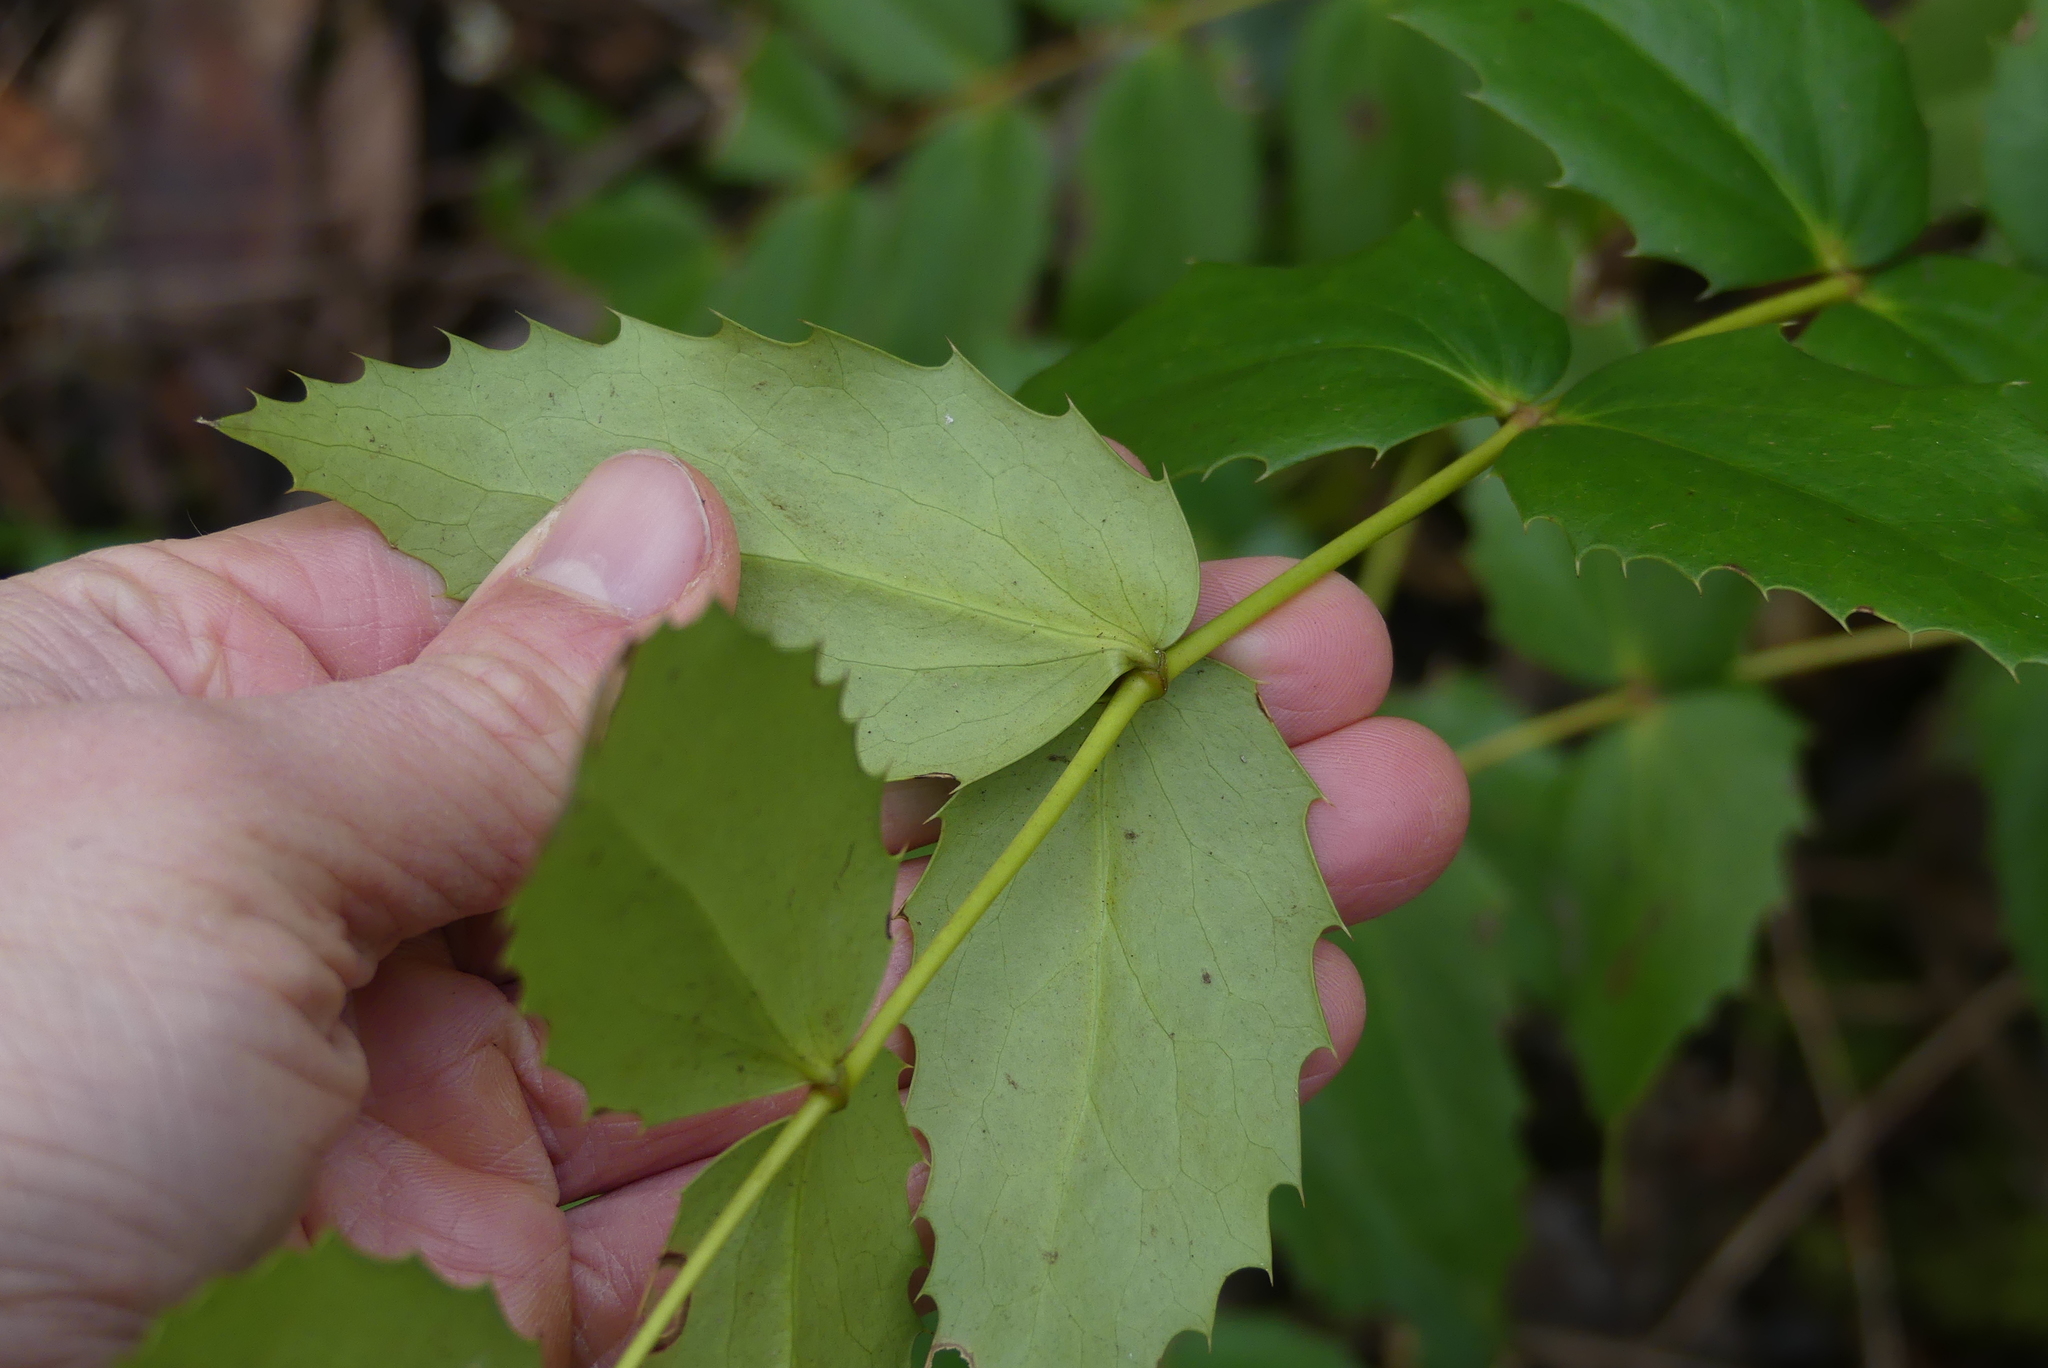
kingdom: Plantae
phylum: Tracheophyta
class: Magnoliopsida
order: Ranunculales
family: Berberidaceae
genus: Mahonia
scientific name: Mahonia nervosa
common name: Cascade oregon-grape
